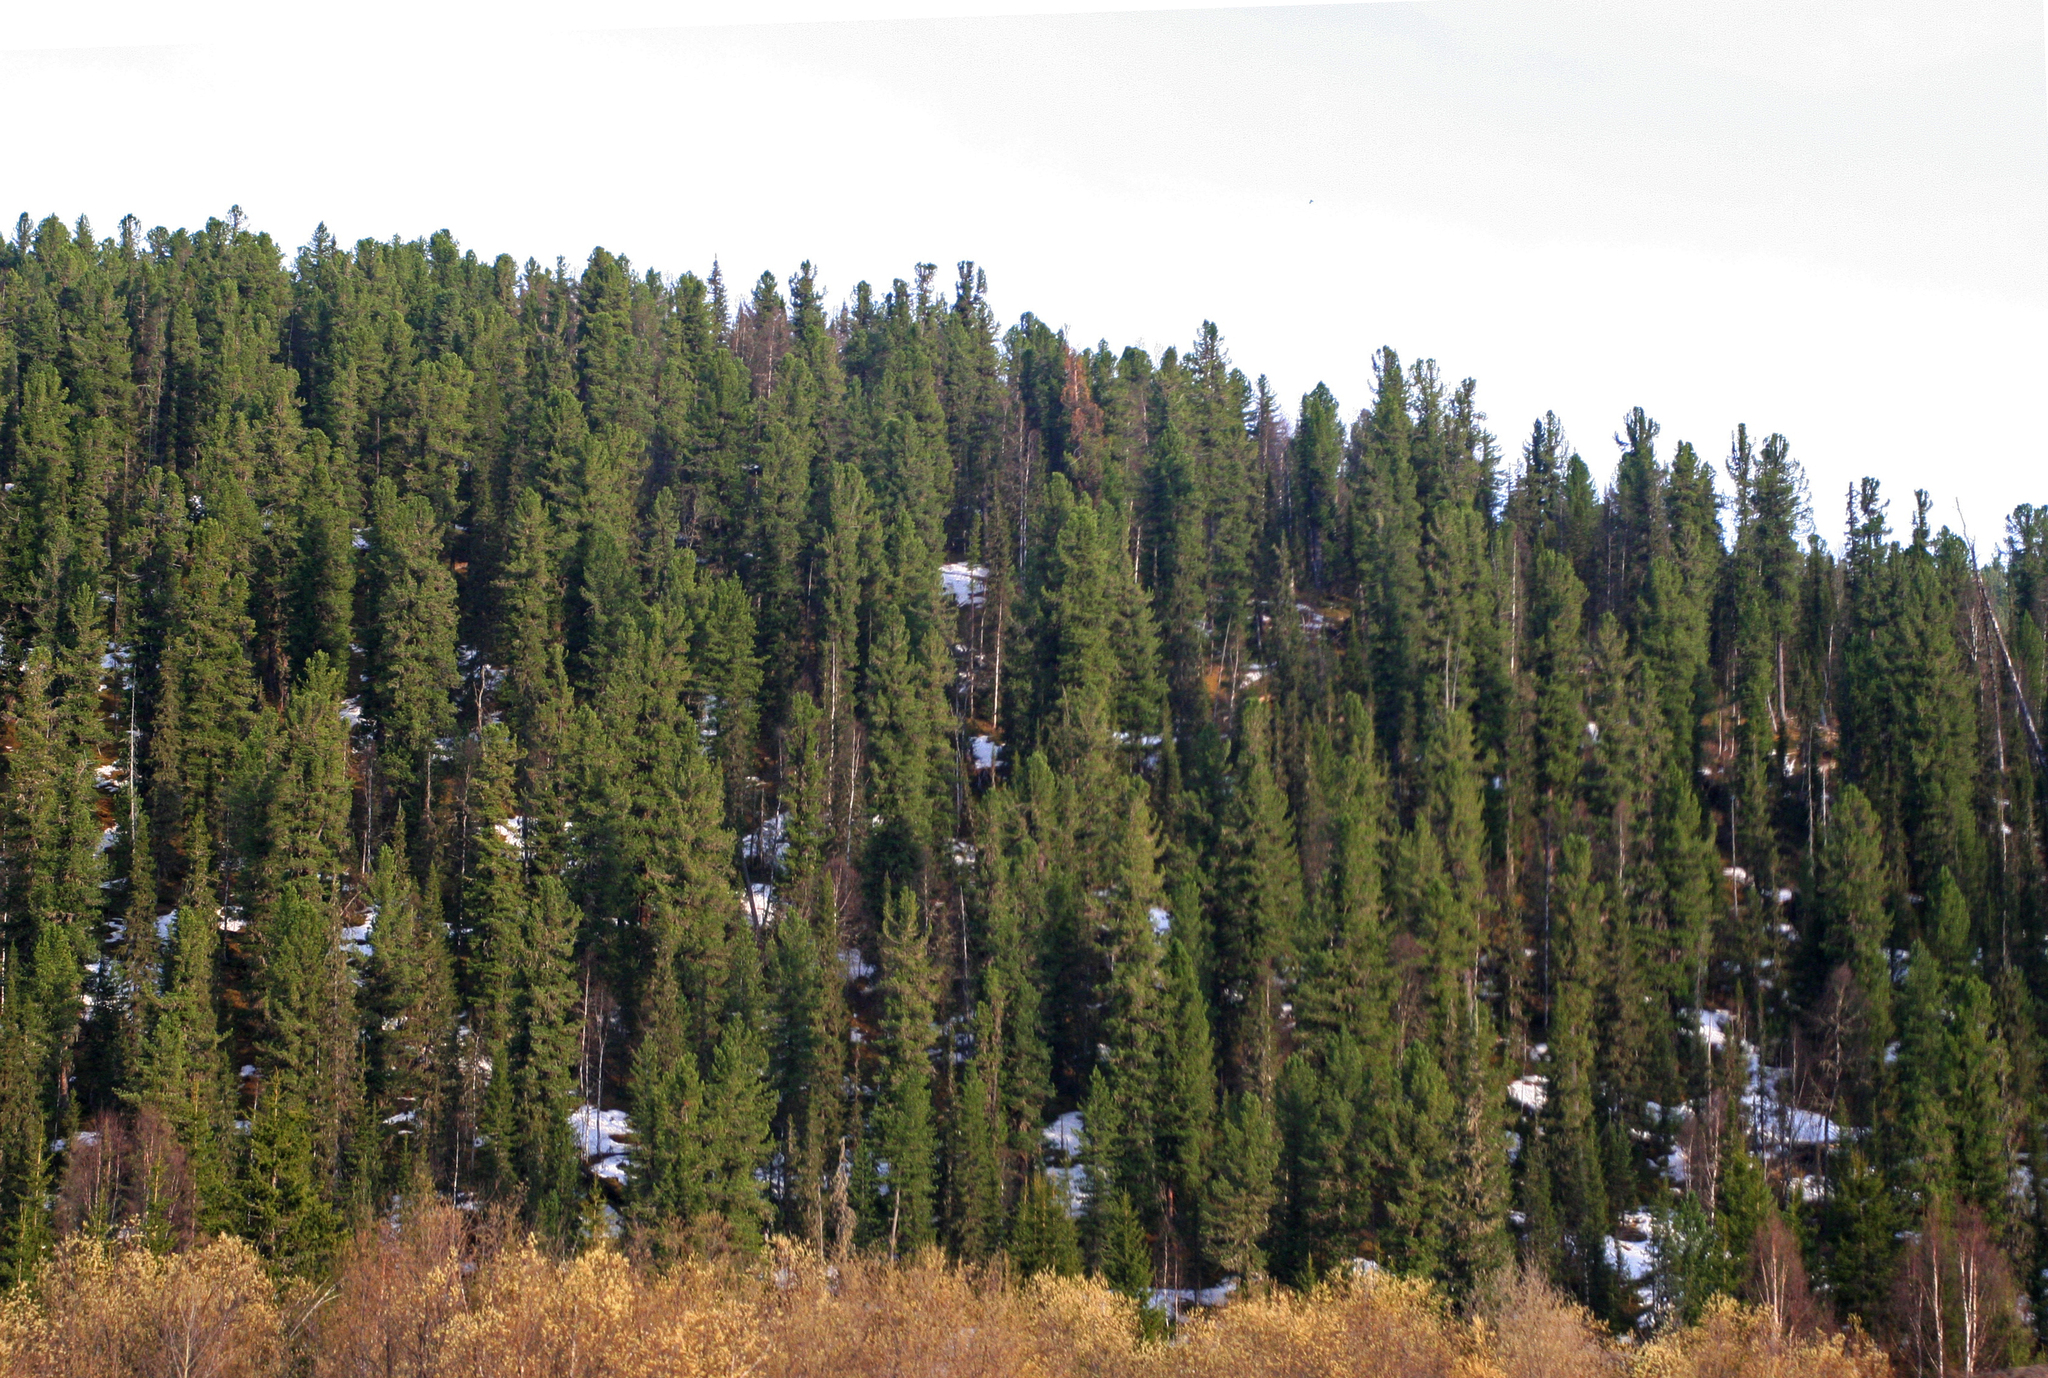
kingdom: Plantae
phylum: Tracheophyta
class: Pinopsida
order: Pinales
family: Pinaceae
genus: Pinus
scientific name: Pinus sibirica
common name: Siberian pine
